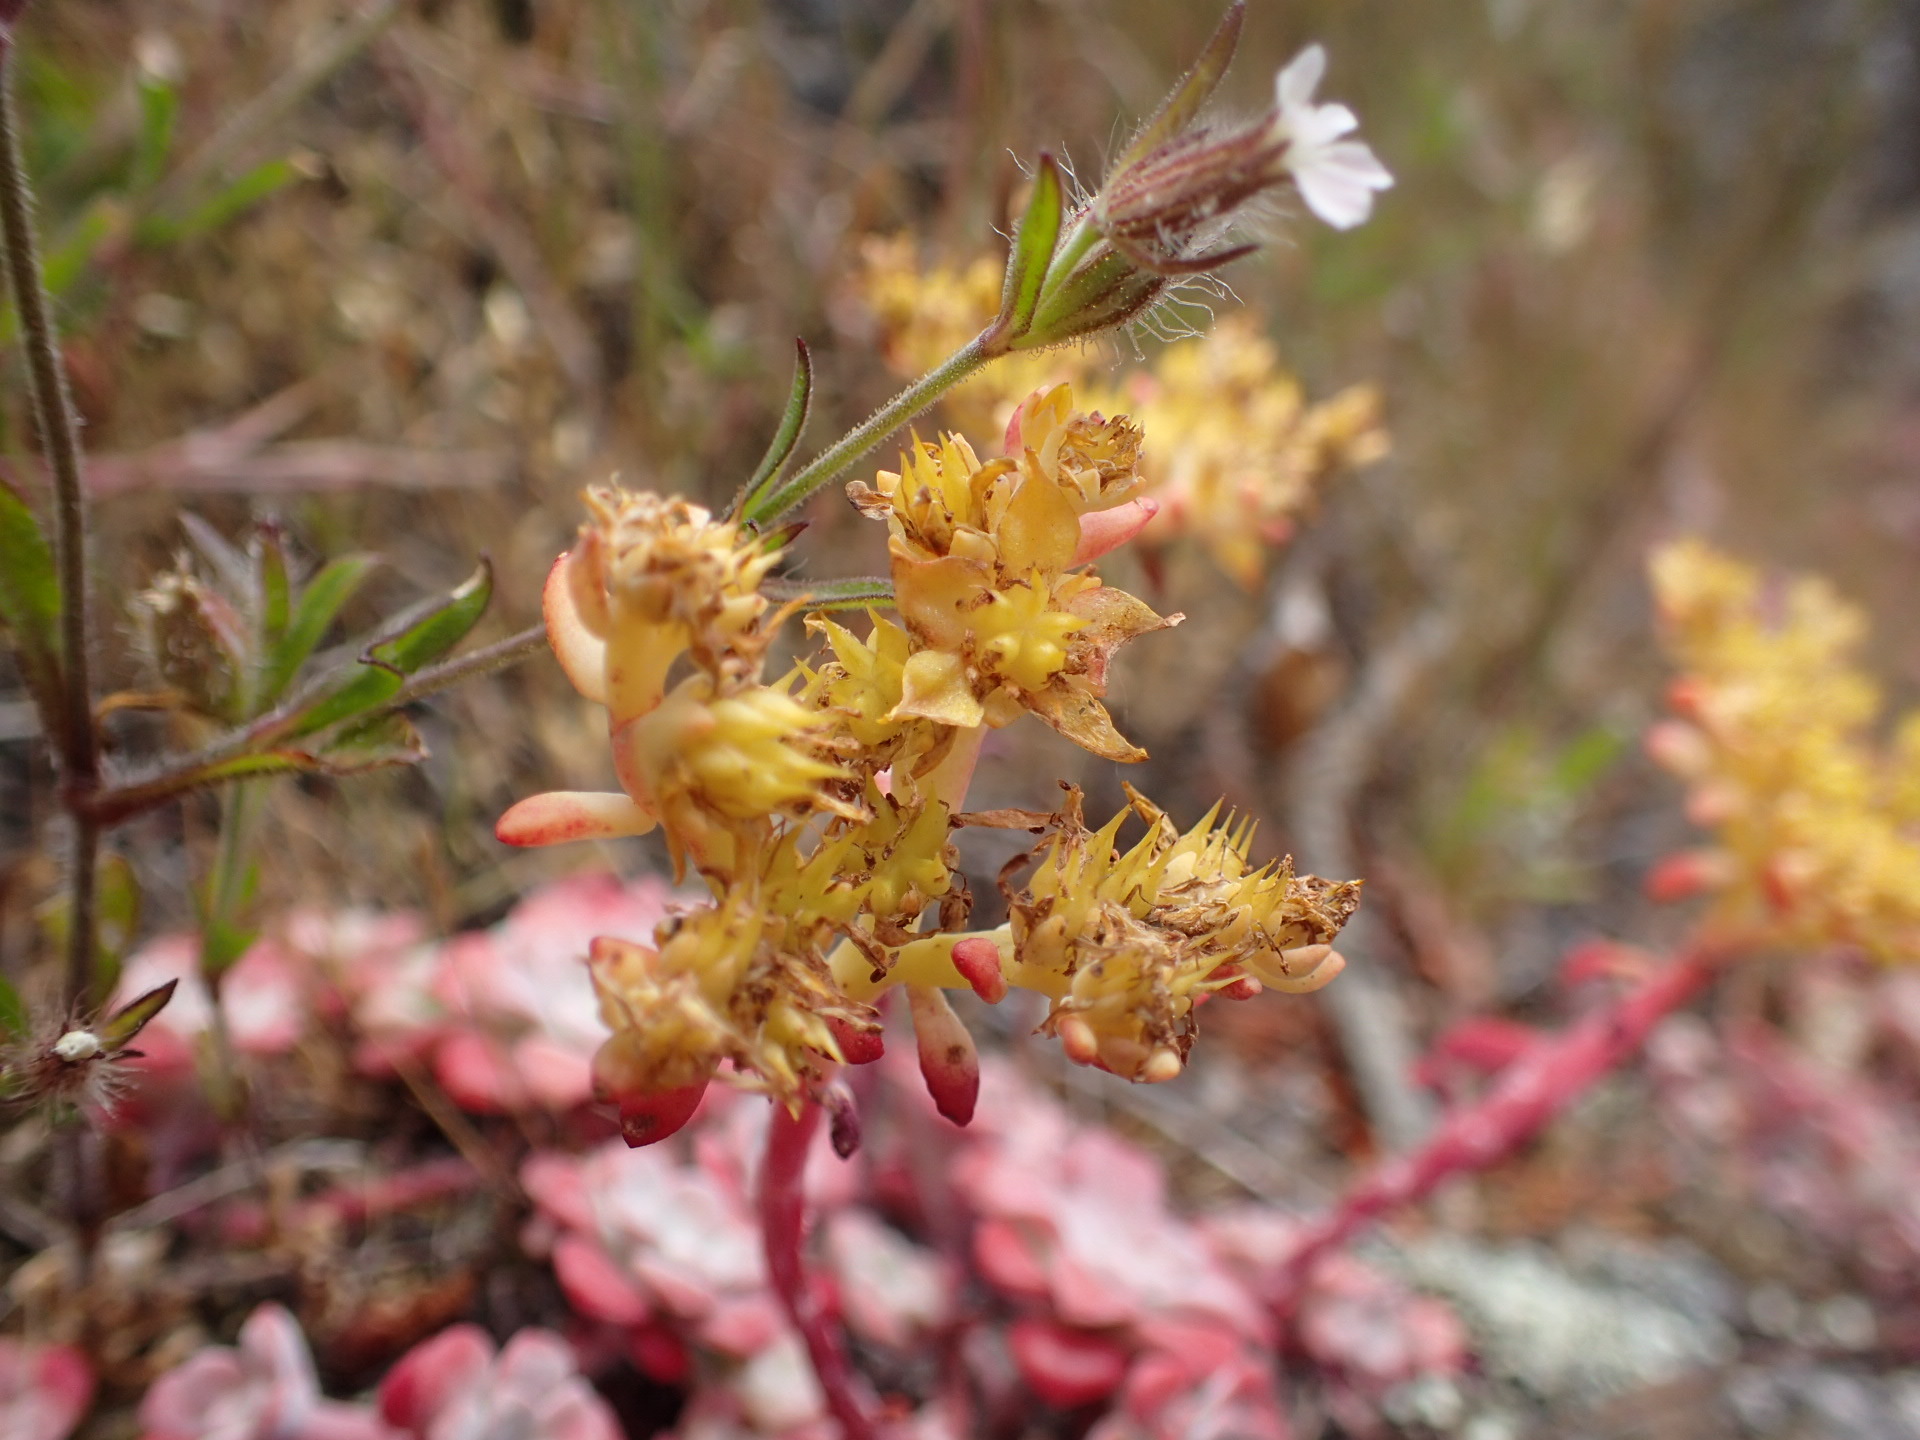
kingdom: Plantae
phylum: Tracheophyta
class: Magnoliopsida
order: Saxifragales
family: Crassulaceae
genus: Sedum
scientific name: Sedum spathulifolium
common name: Colorado stonecrop
